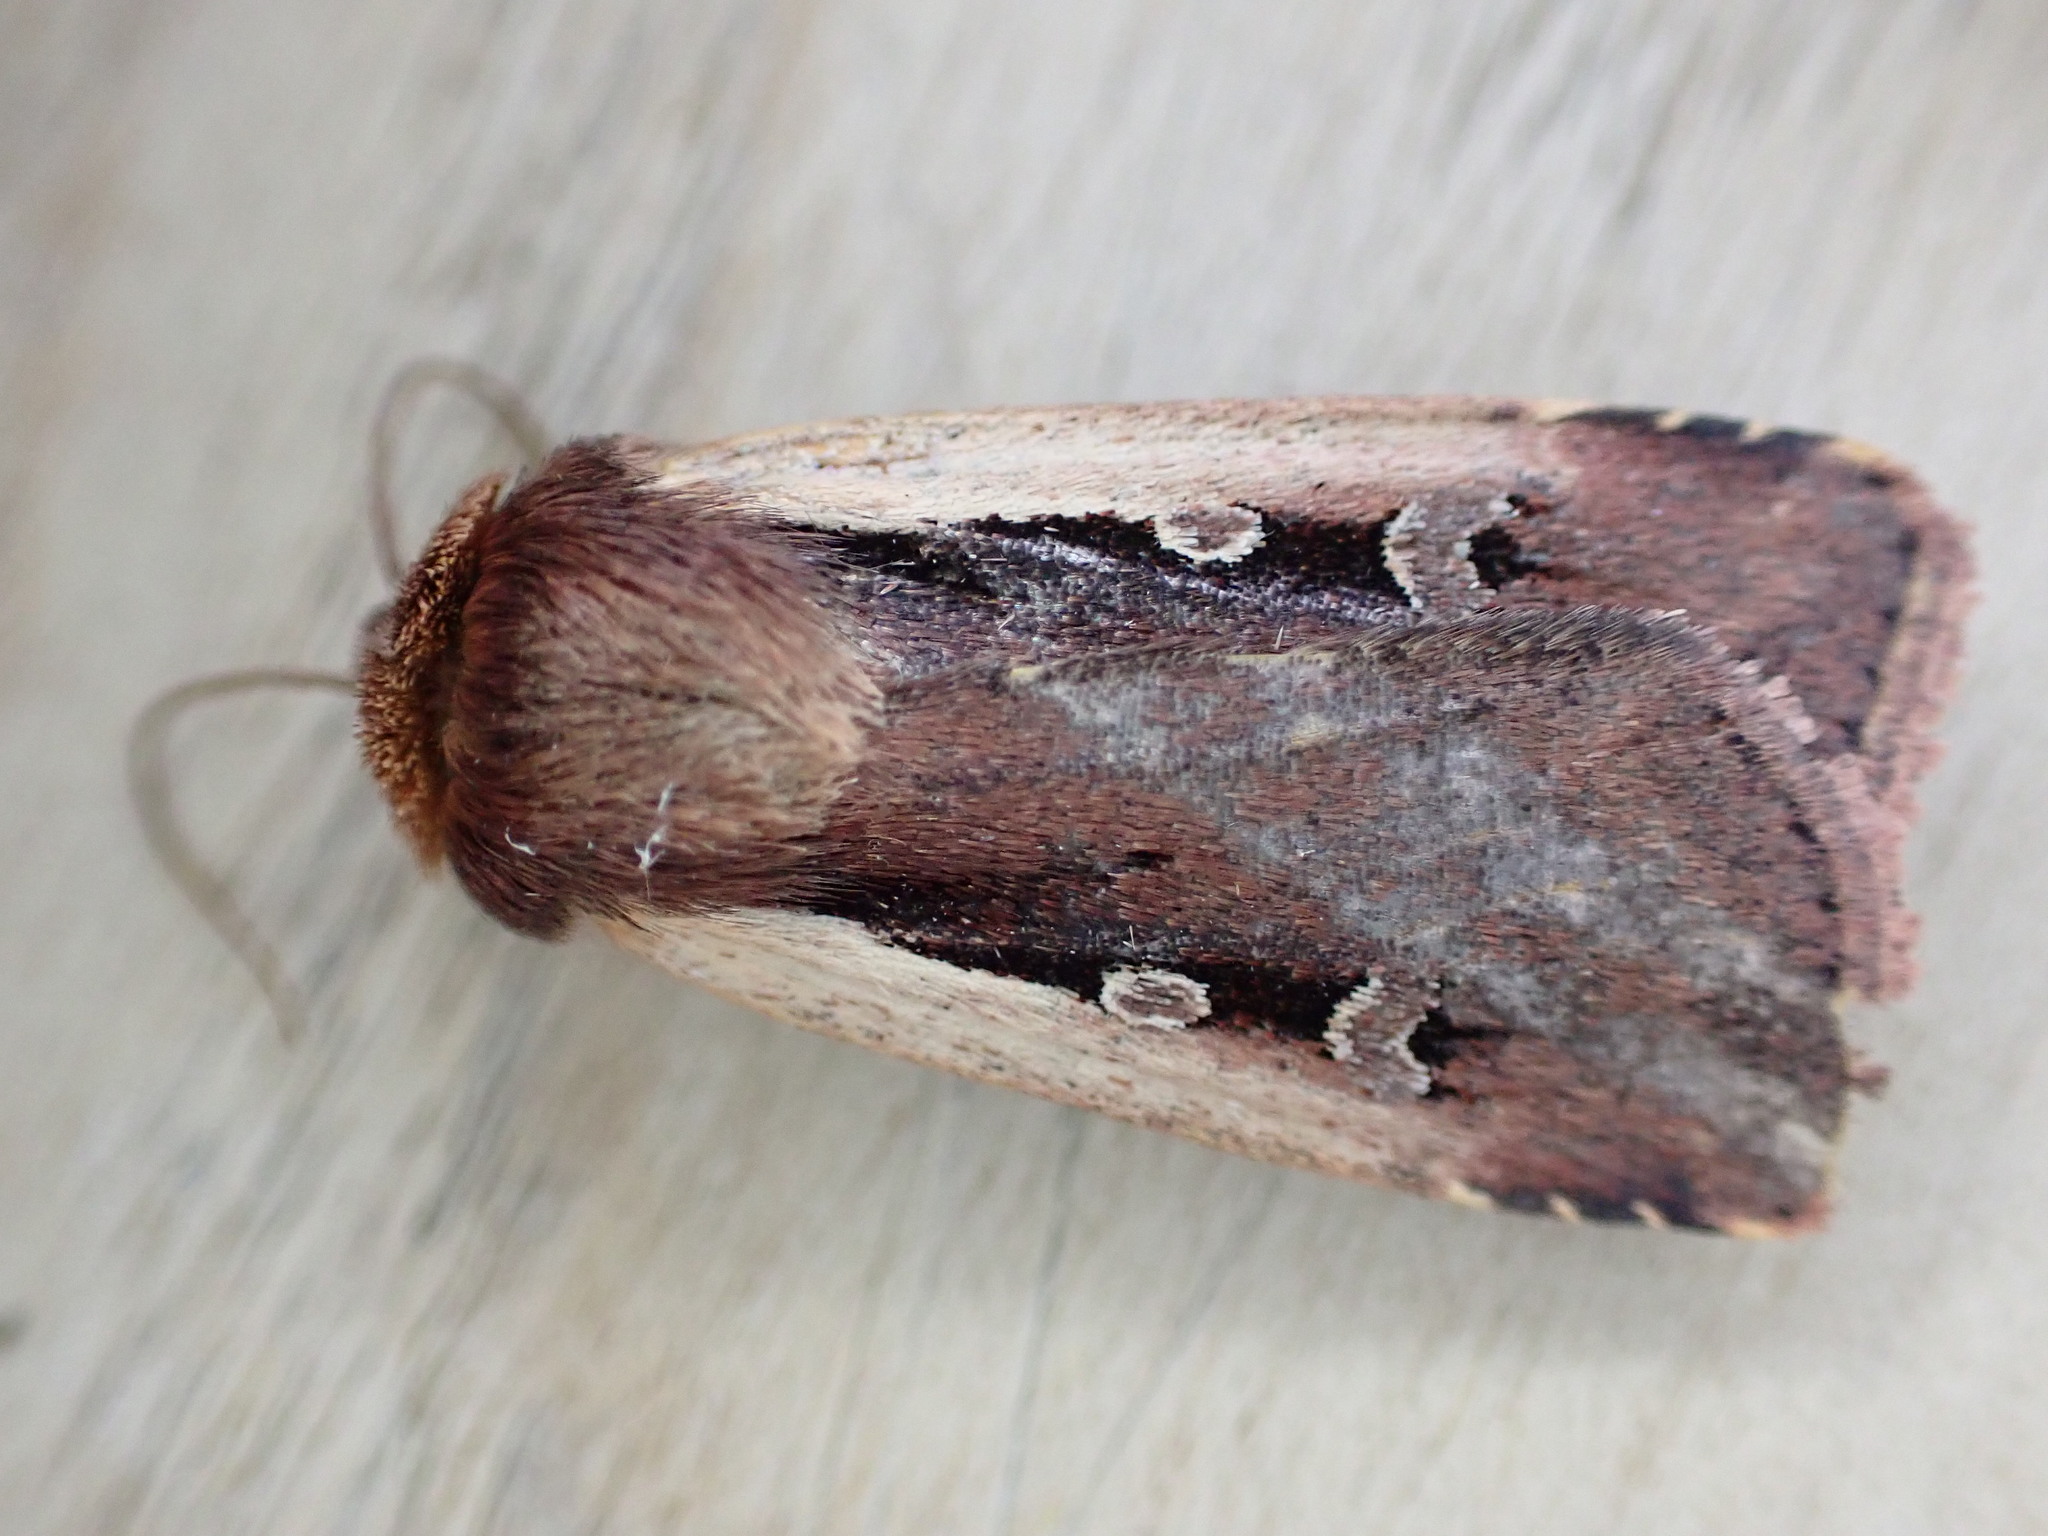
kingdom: Animalia
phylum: Arthropoda
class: Insecta
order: Lepidoptera
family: Noctuidae
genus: Ochropleura
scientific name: Ochropleura plecta
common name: Flame shoulder
